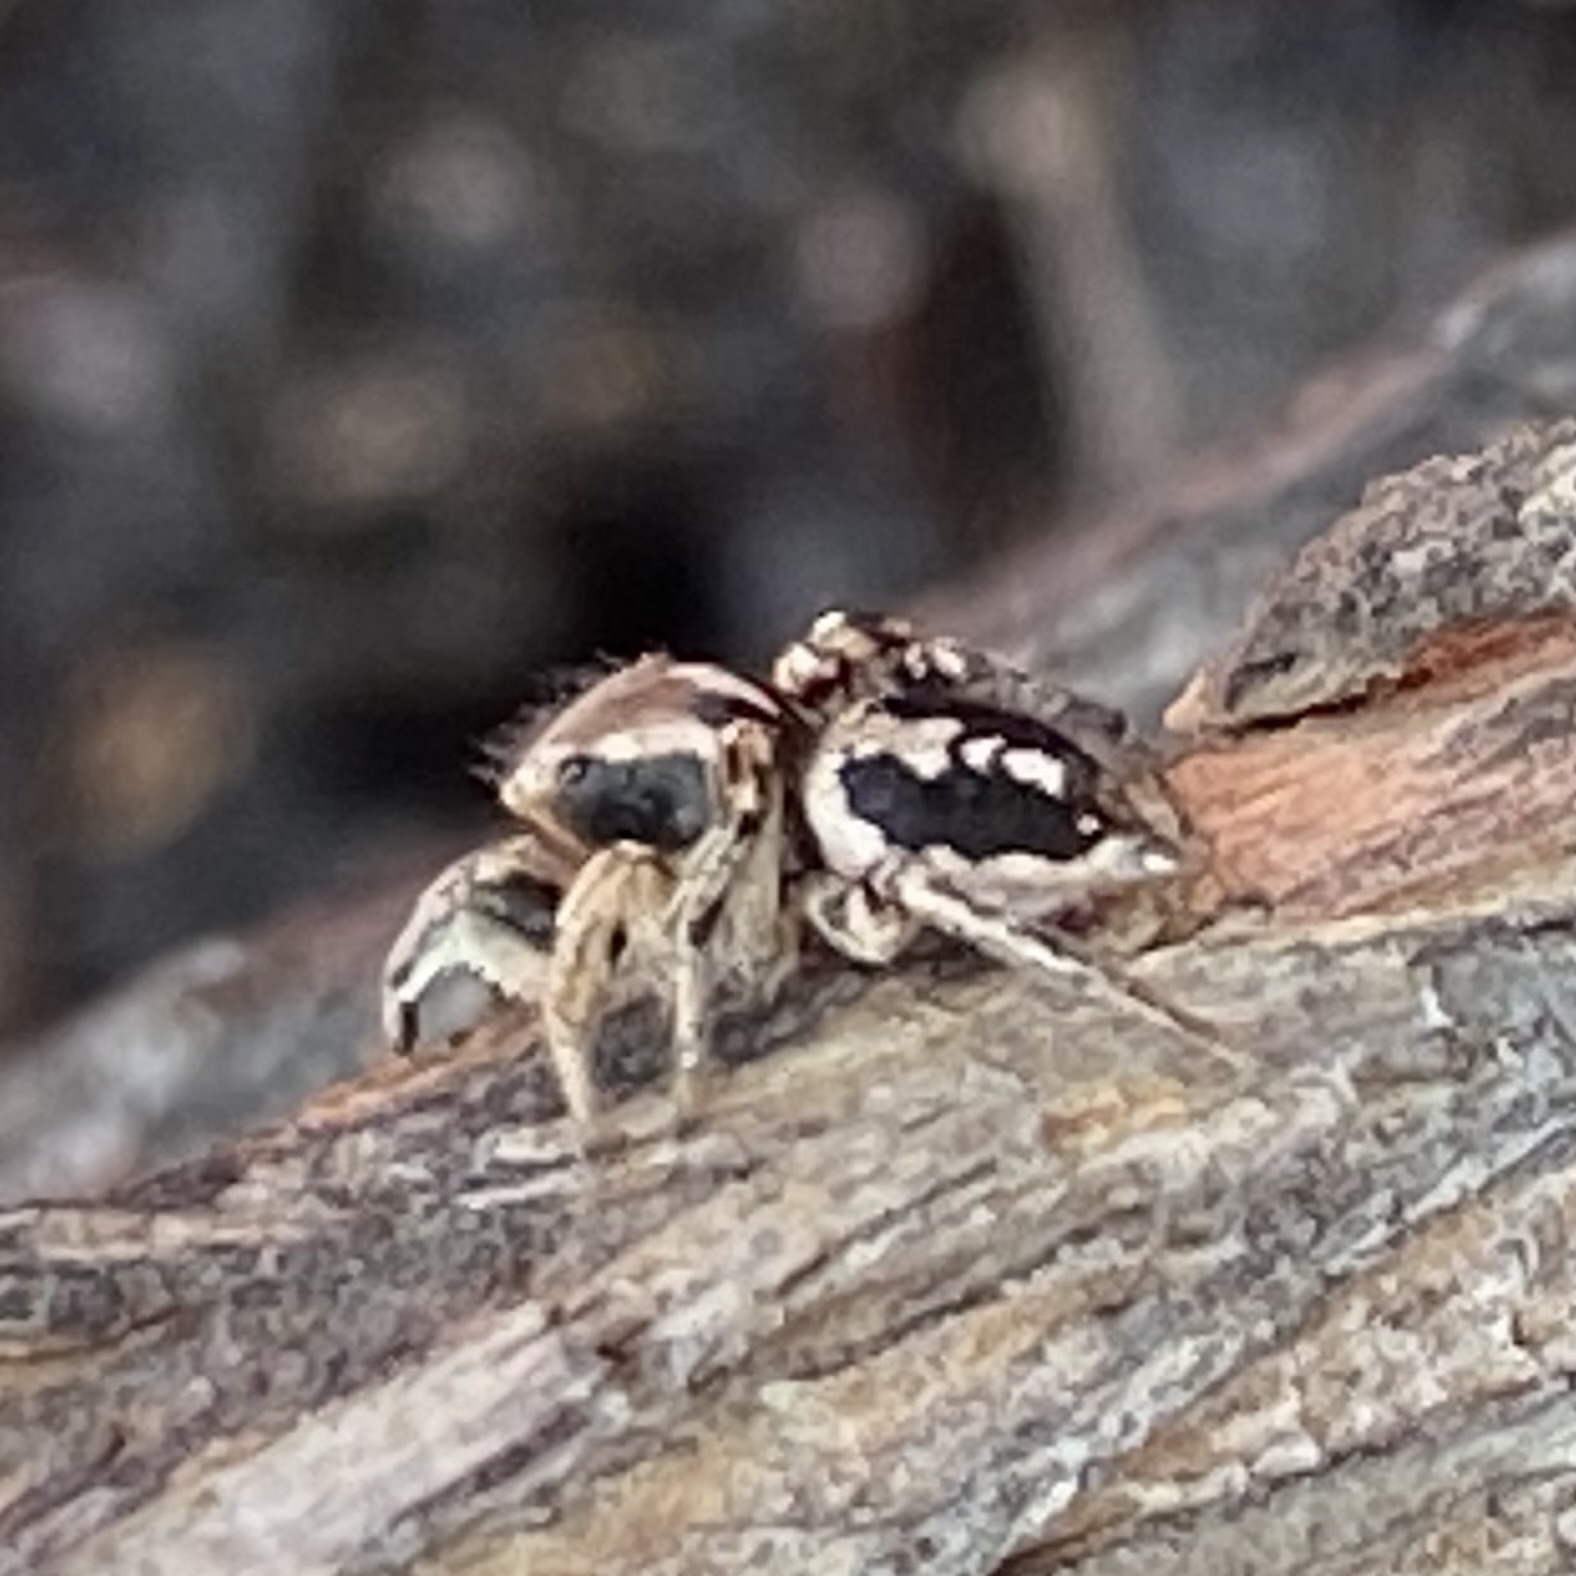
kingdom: Animalia
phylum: Arthropoda
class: Arachnida
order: Araneae
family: Salticidae
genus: Habronattus
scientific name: Habronattus pyrrithrix
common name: Jumping spider
